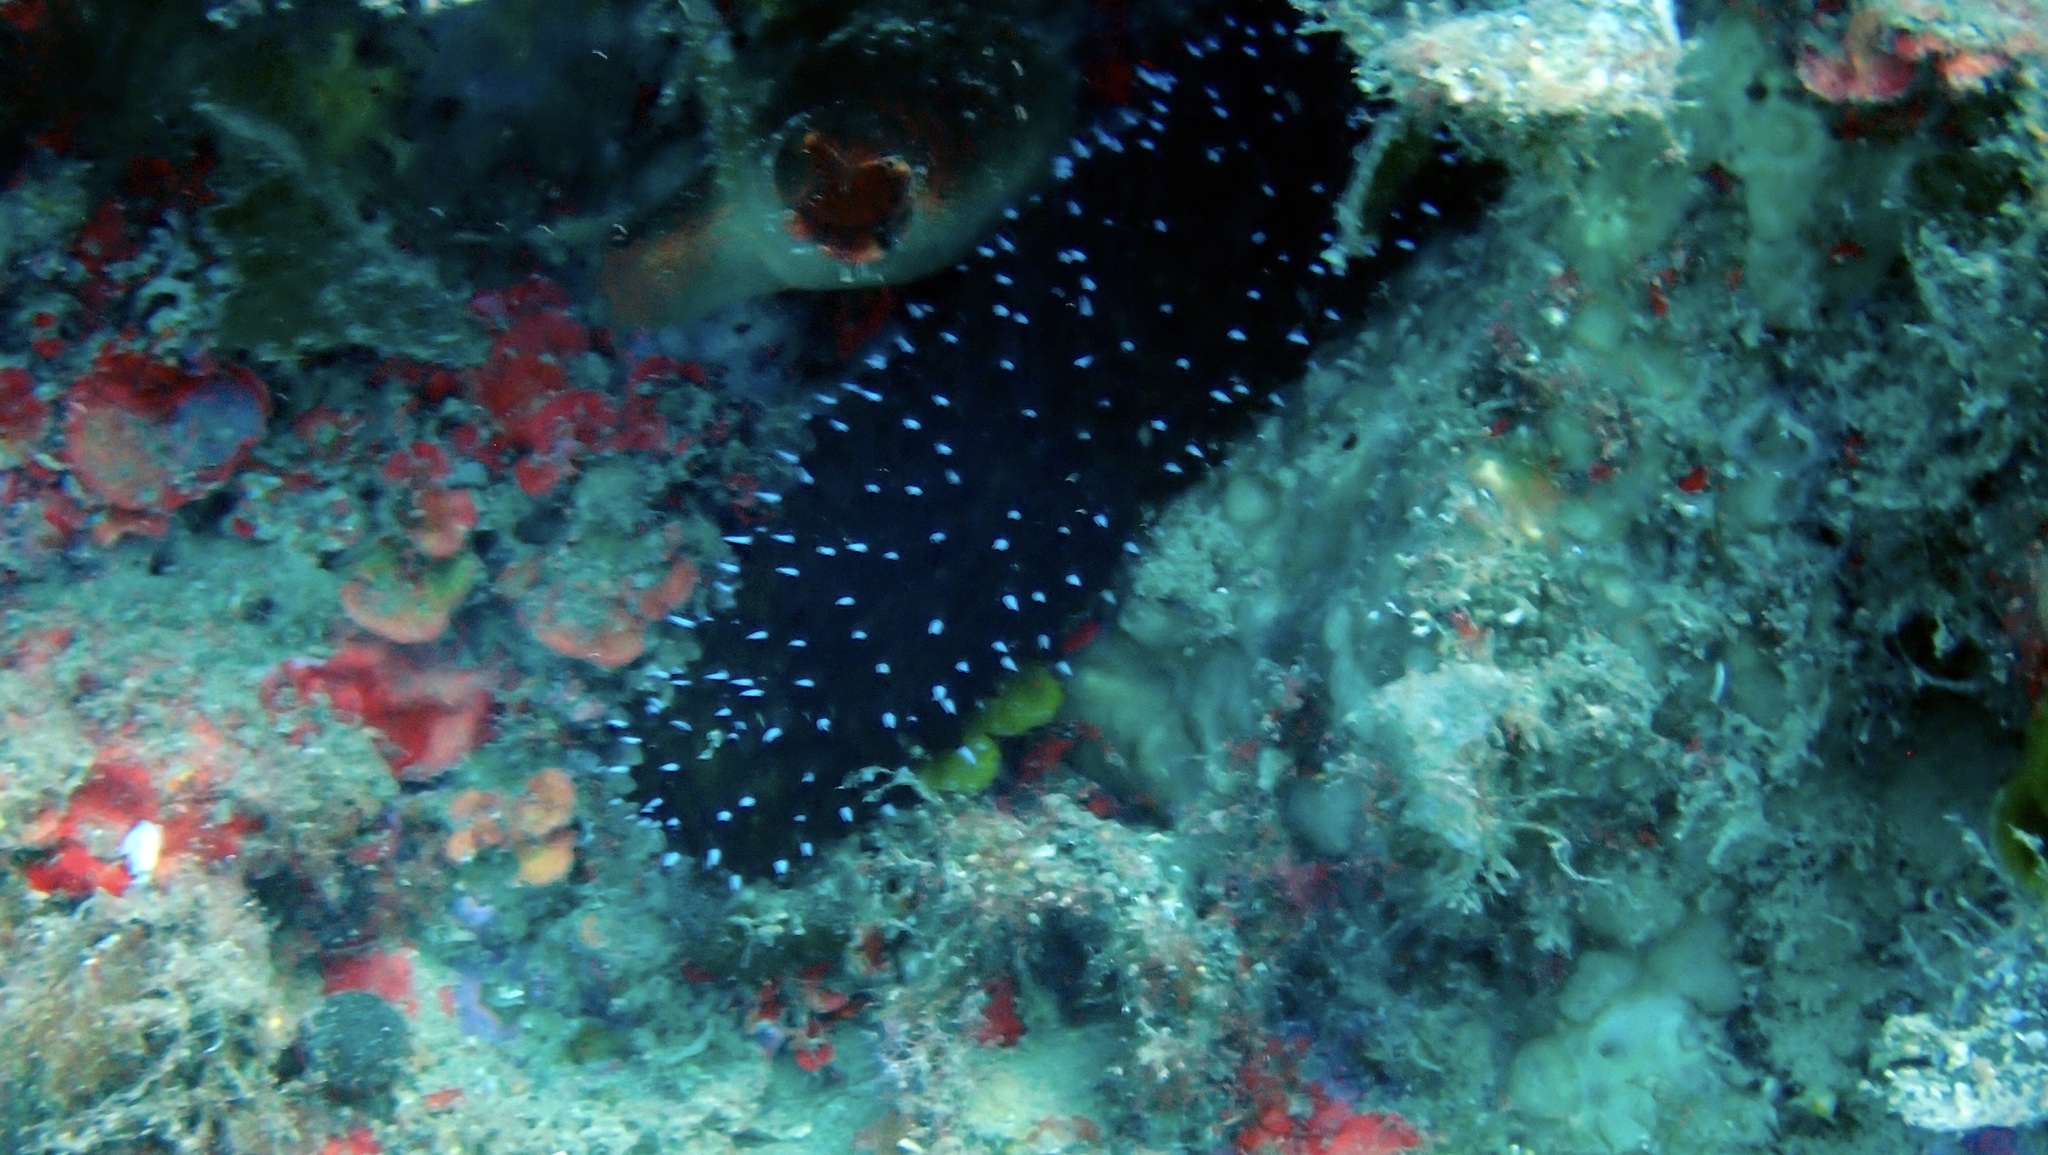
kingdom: Animalia
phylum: Echinodermata
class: Holothuroidea
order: Holothuriida
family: Holothuriidae
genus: Holothuria
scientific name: Holothuria forskali
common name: Black sea cucumber
